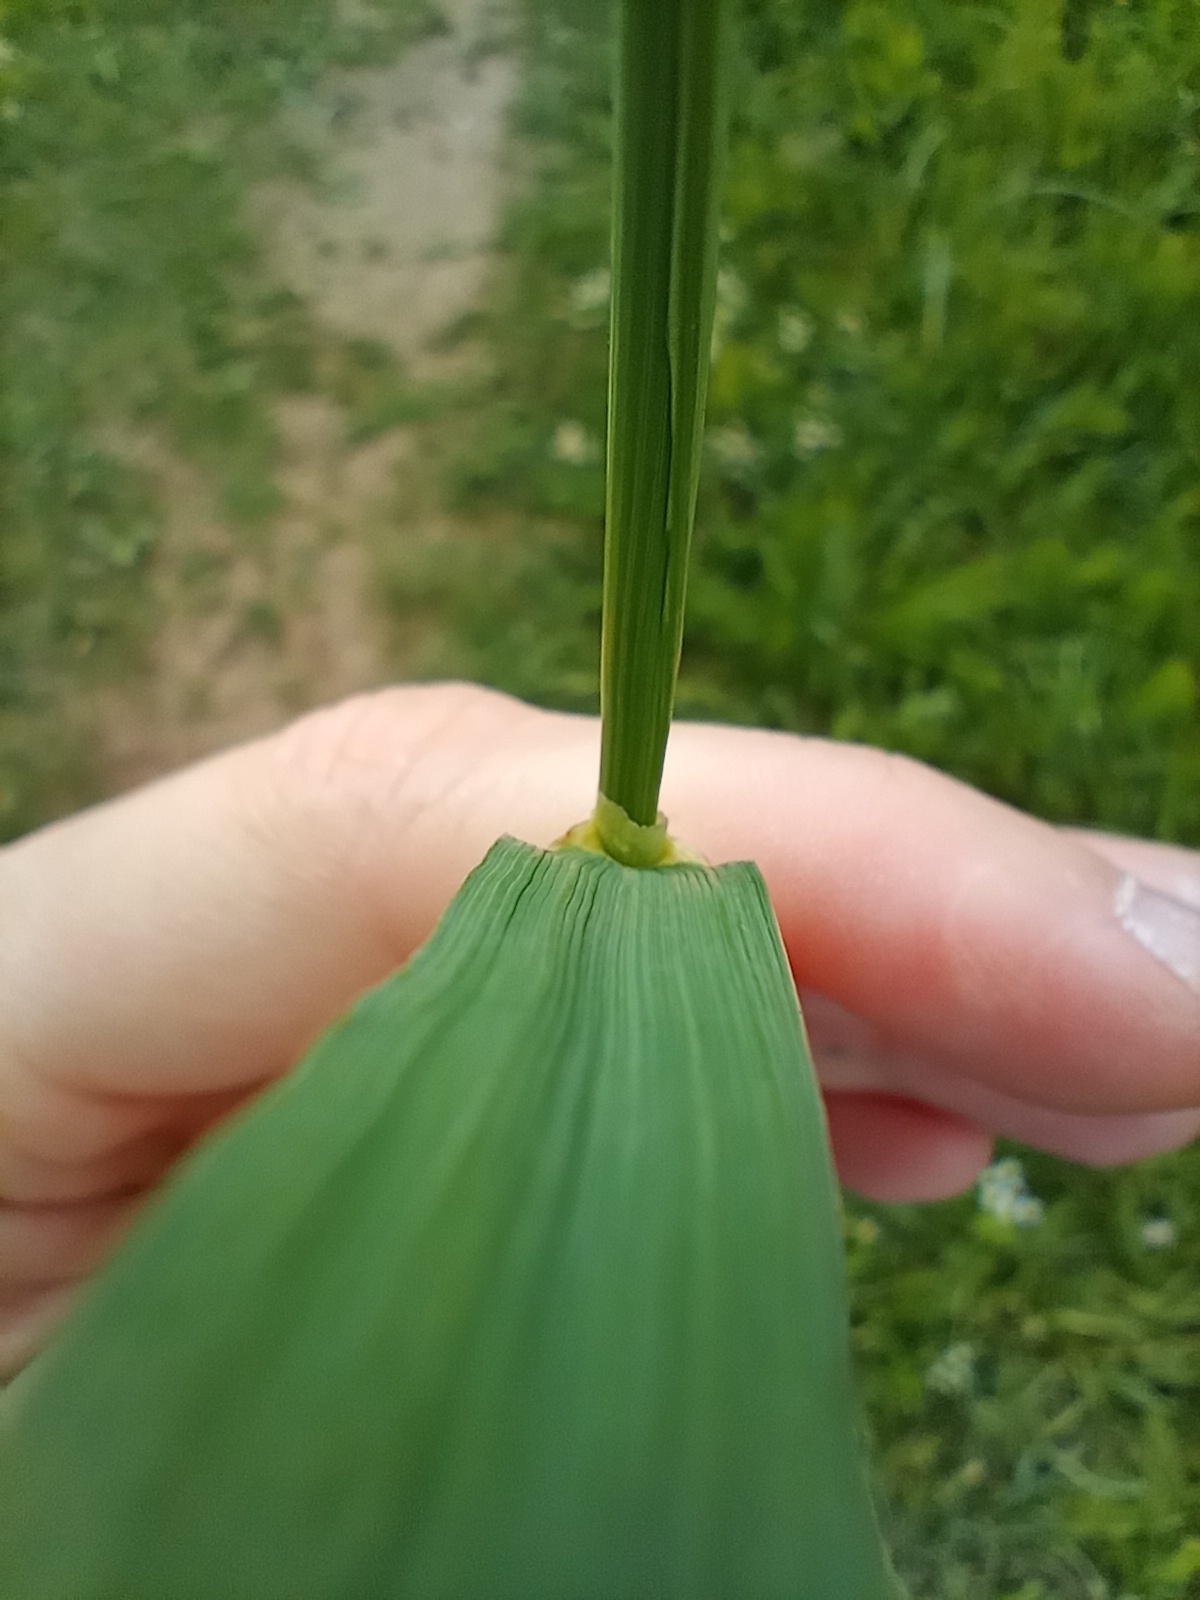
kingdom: Plantae
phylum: Tracheophyta
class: Liliopsida
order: Poales
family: Poaceae
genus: Alopecurus
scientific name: Alopecurus pratensis
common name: Meadow foxtail
